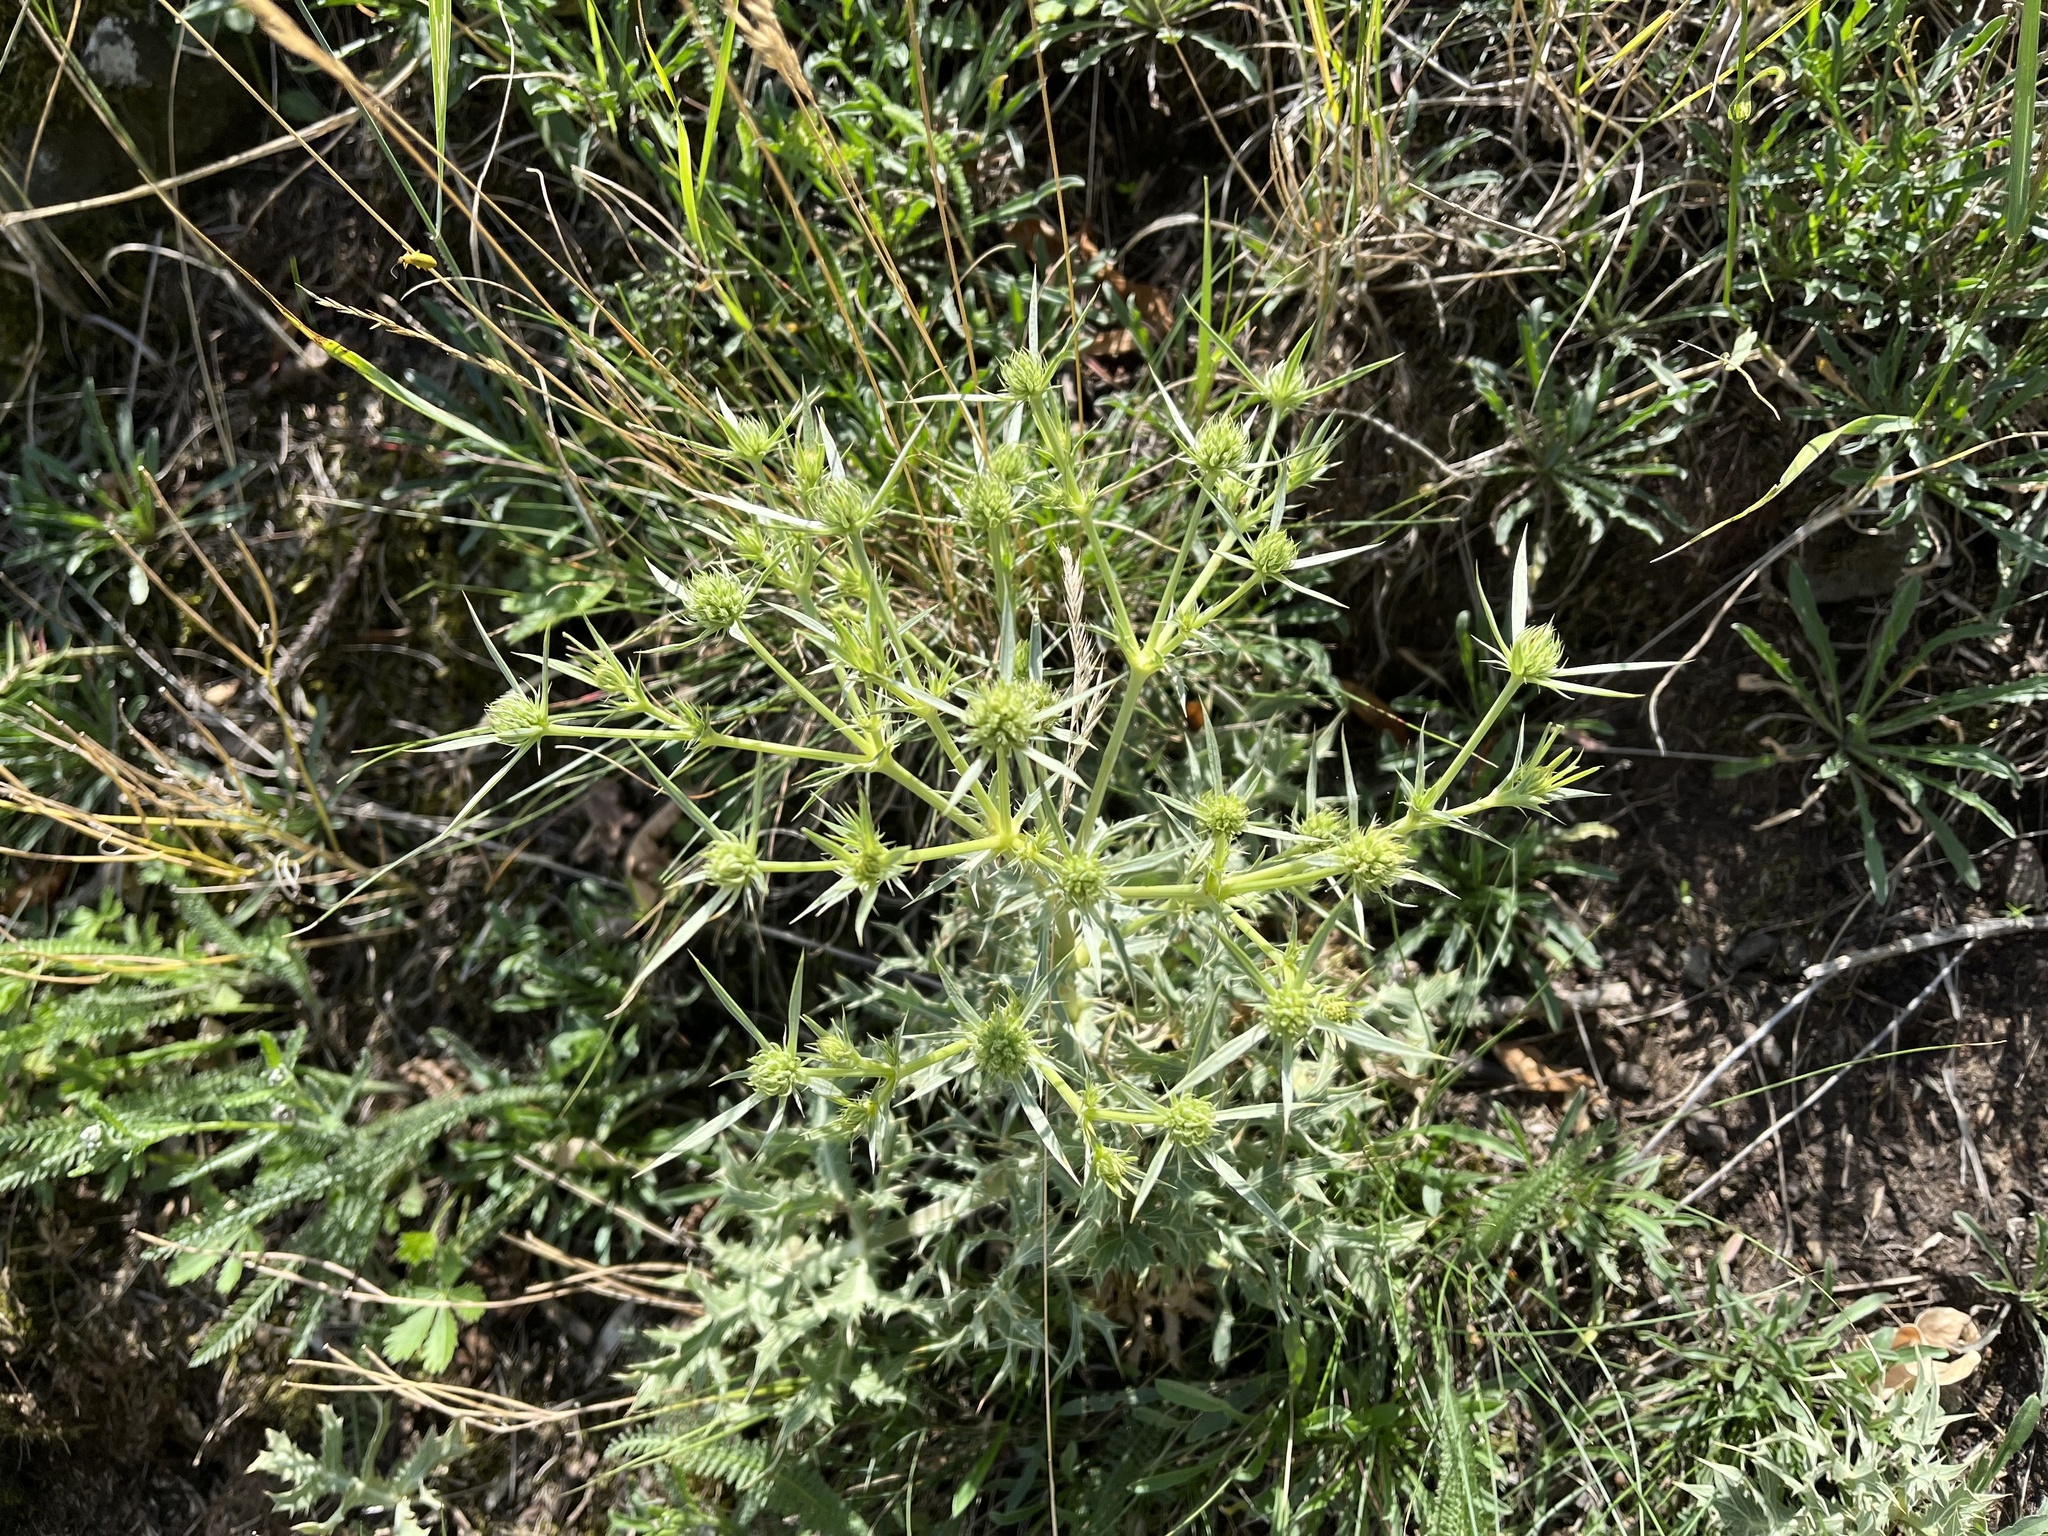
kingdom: Plantae
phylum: Tracheophyta
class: Magnoliopsida
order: Apiales
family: Apiaceae
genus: Eryngium
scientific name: Eryngium campestre
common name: Field eryngo
